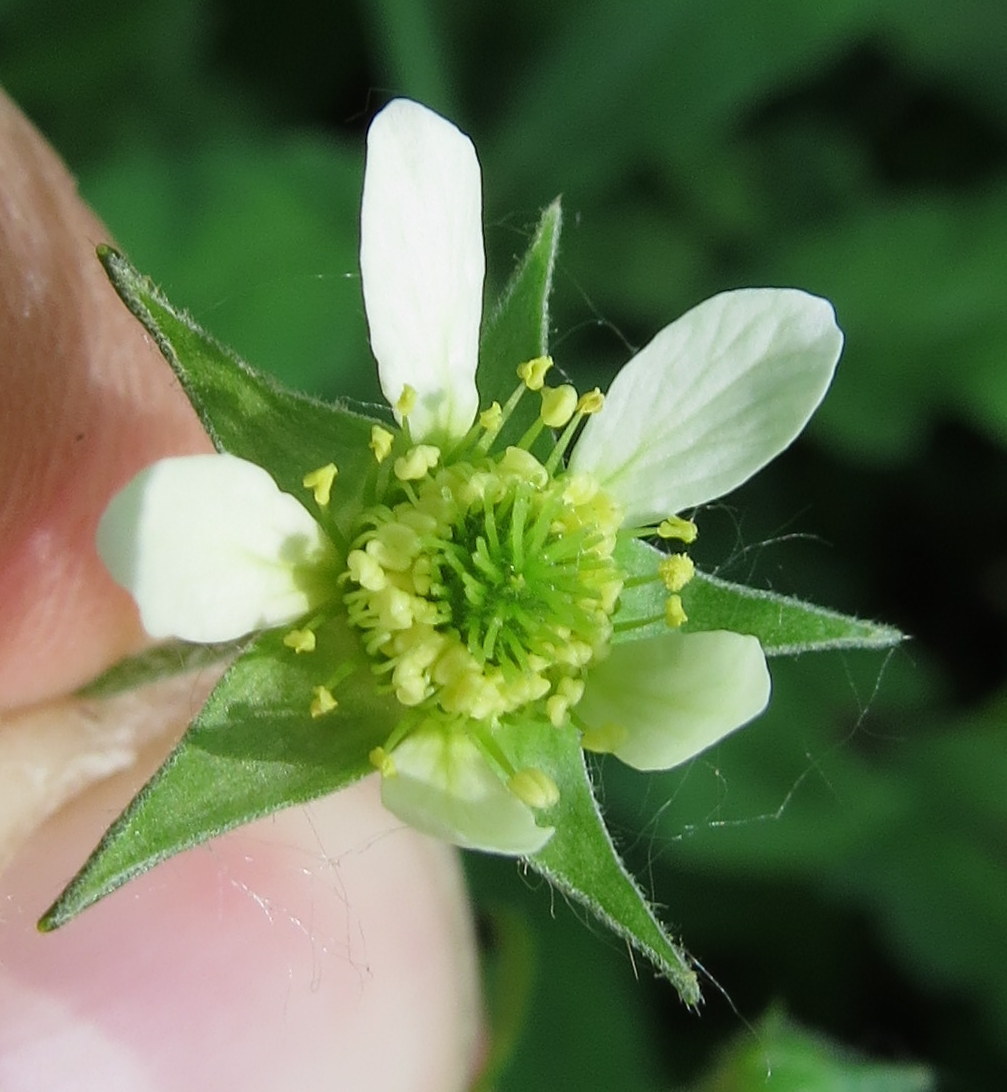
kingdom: Plantae
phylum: Tracheophyta
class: Magnoliopsida
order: Rosales
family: Rosaceae
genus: Geum
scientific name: Geum canadense
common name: White avens
